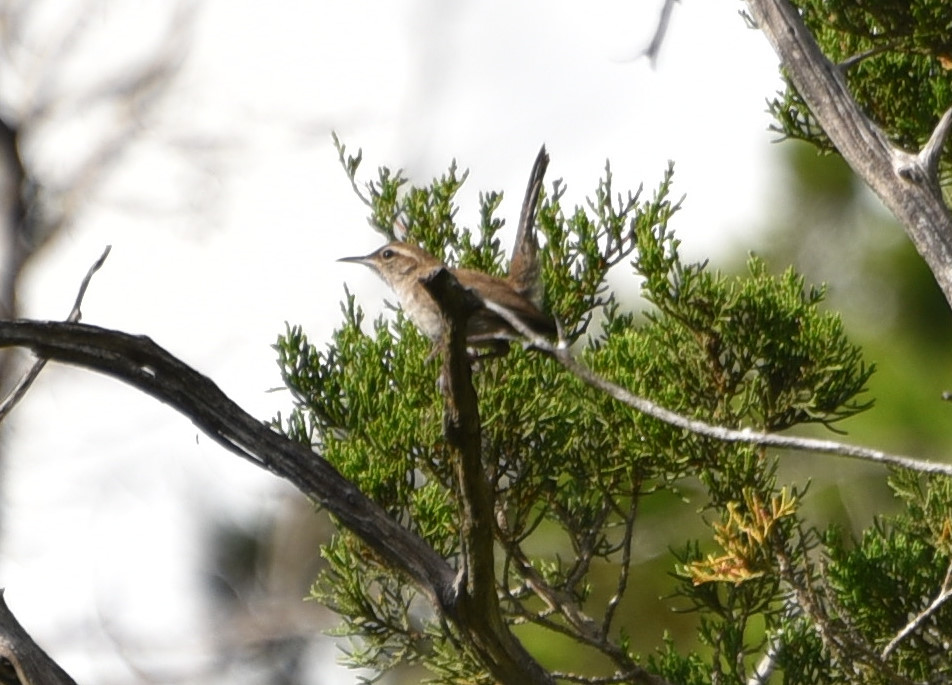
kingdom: Animalia
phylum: Chordata
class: Aves
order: Passeriformes
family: Troglodytidae
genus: Thryomanes
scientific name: Thryomanes bewickii
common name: Bewick's wren
